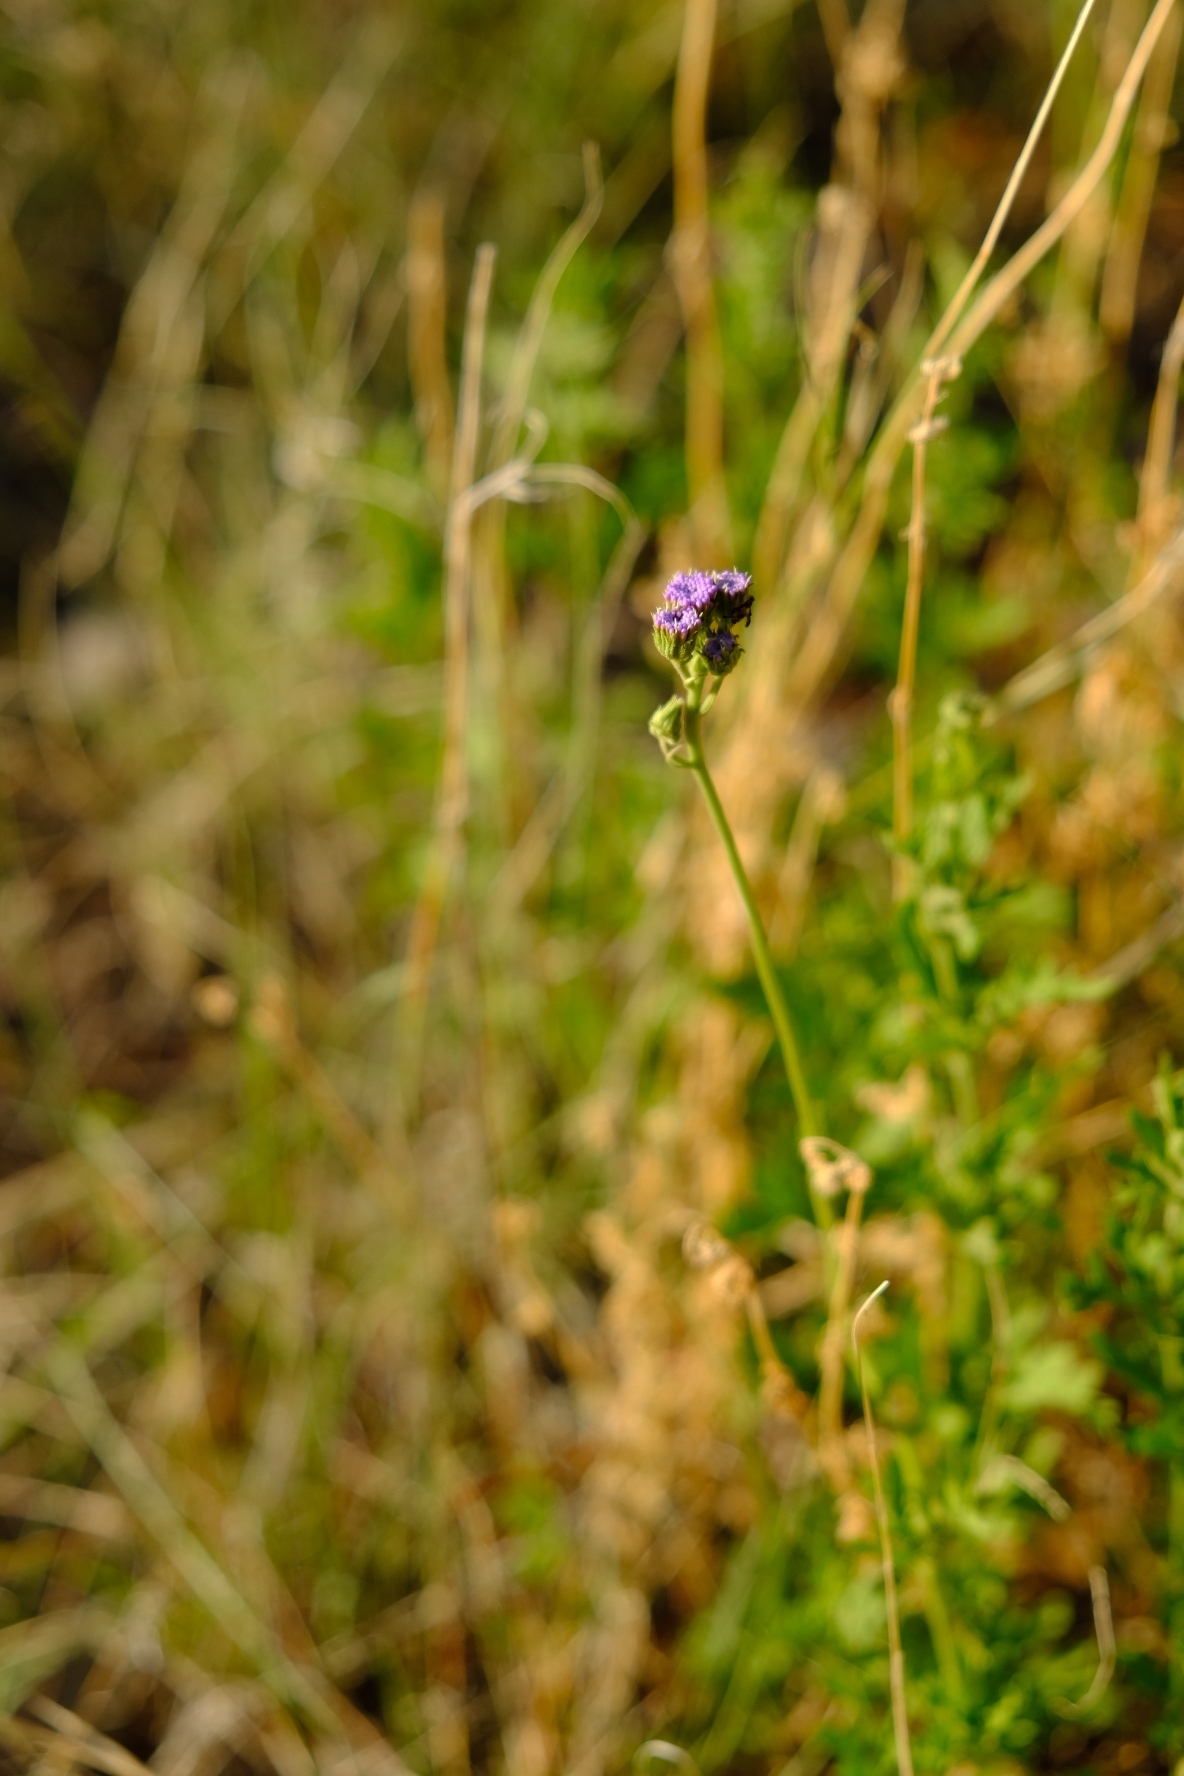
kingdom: Plantae
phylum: Tracheophyta
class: Magnoliopsida
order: Asterales
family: Asteraceae
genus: Conoclinium
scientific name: Conoclinium dissectum
